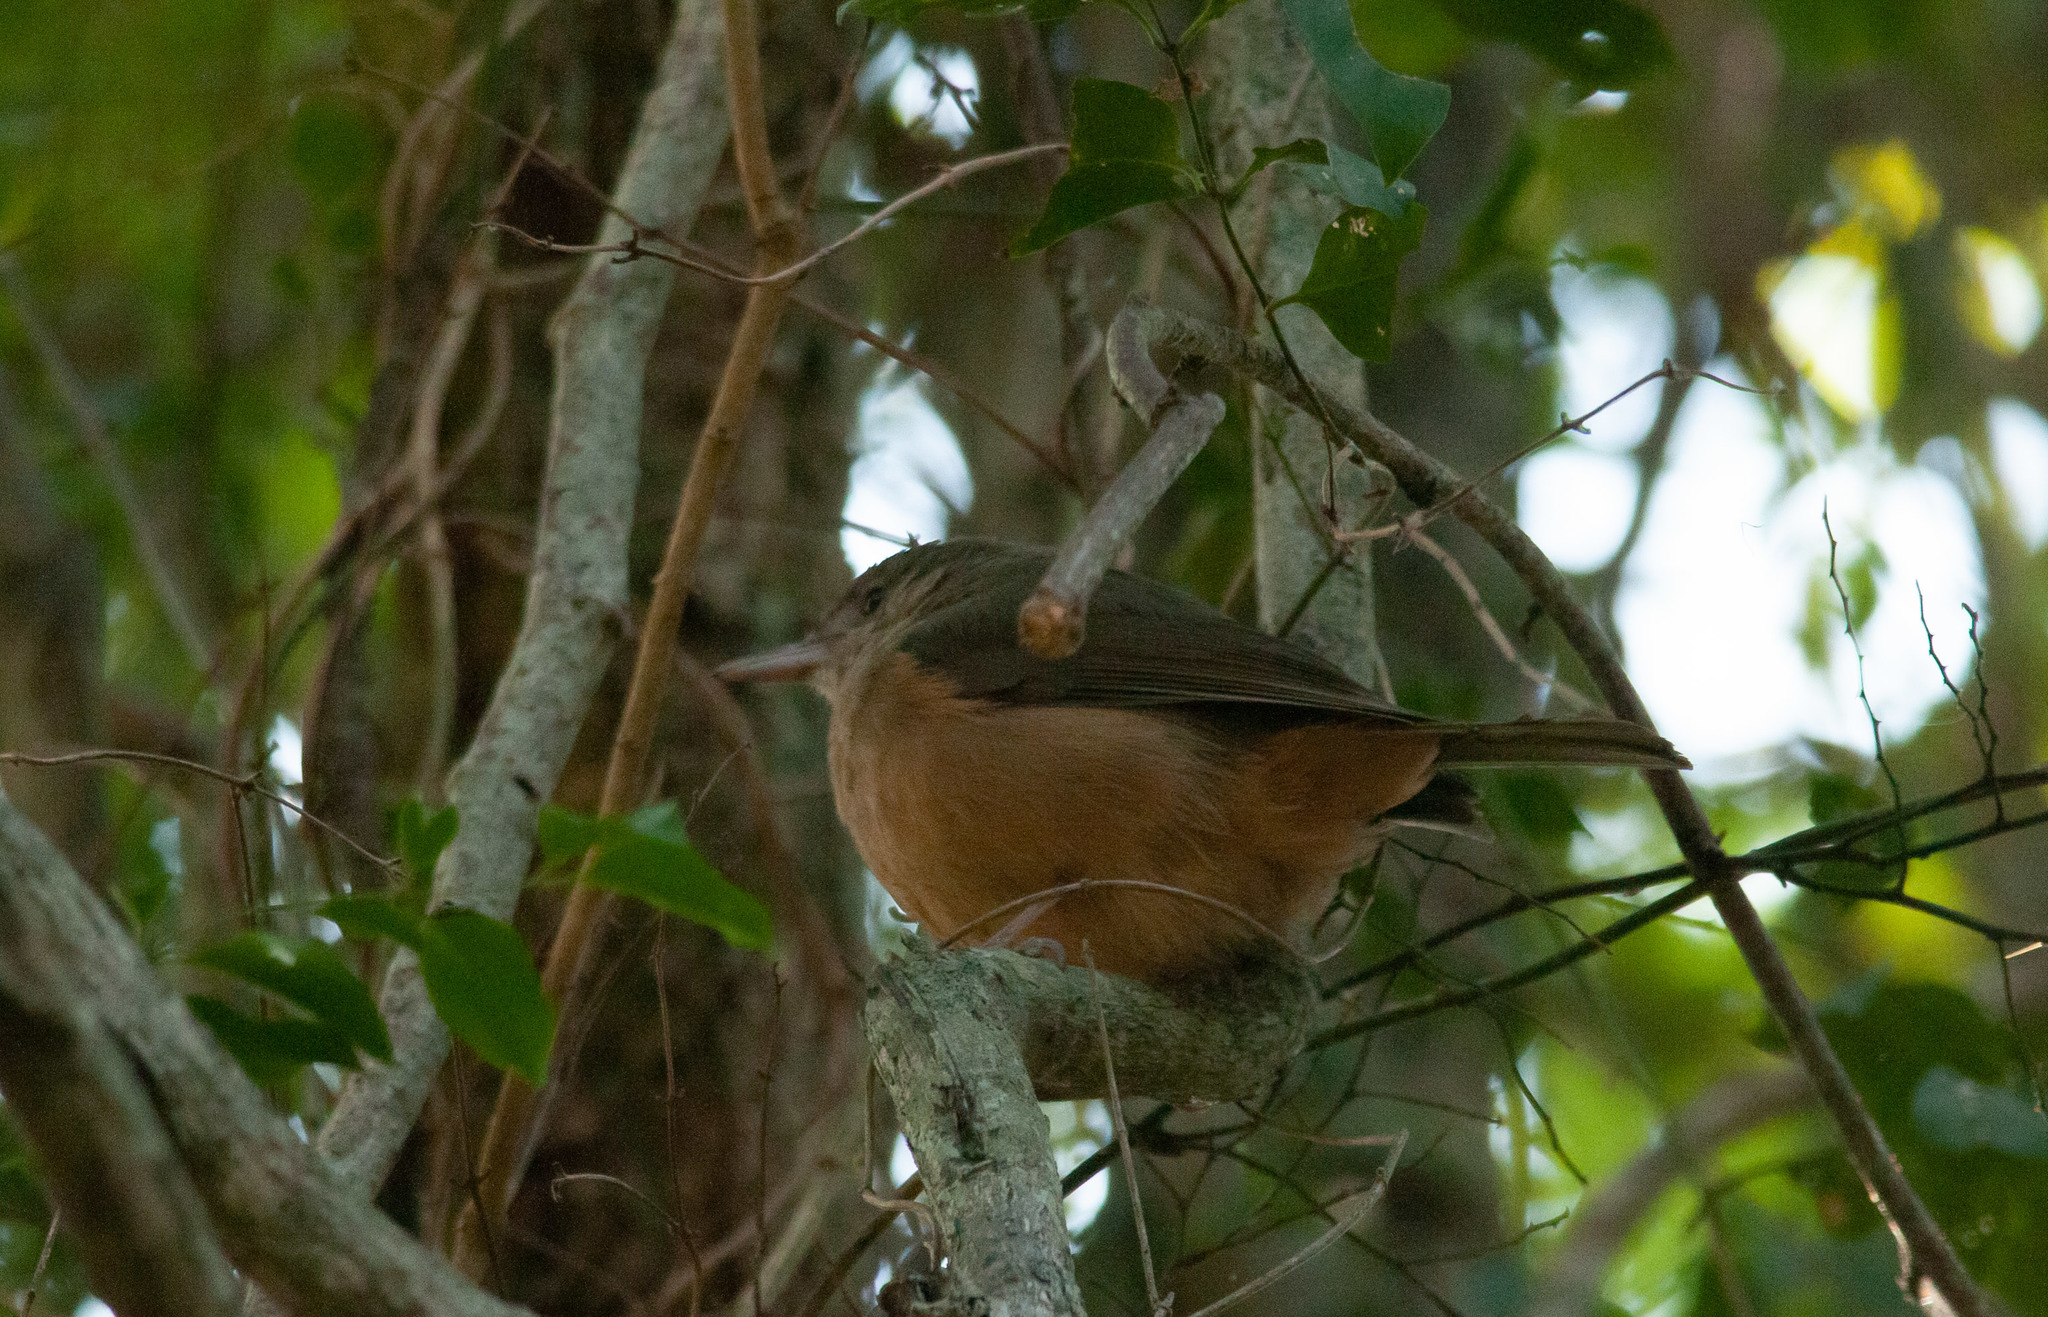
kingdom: Animalia
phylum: Chordata
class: Aves
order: Passeriformes
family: Pachycephalidae
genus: Colluricincla
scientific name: Colluricincla rufogaster
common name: Rufous shrikethrush
